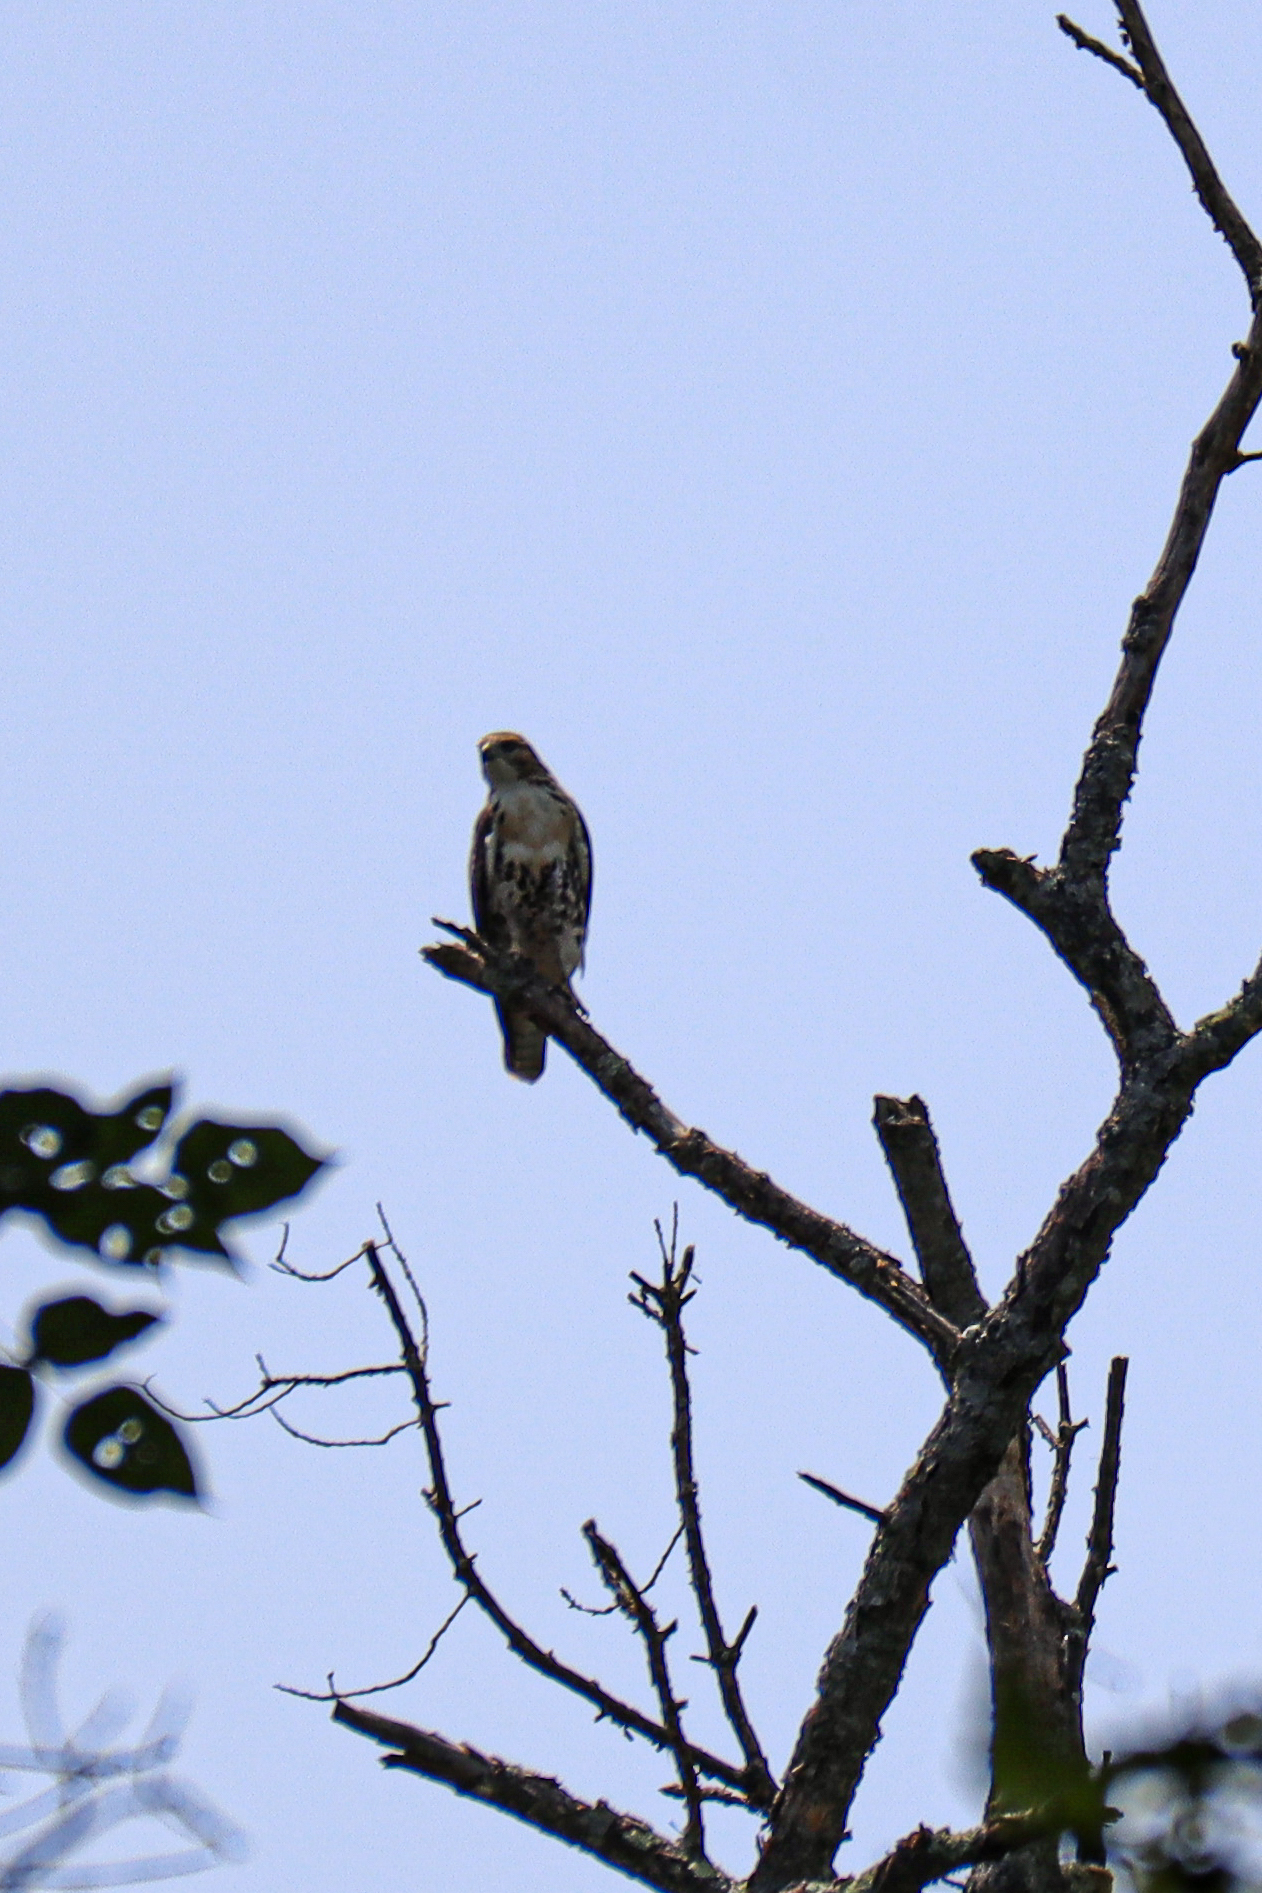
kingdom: Animalia
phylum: Chordata
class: Aves
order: Accipitriformes
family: Accipitridae
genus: Buteo
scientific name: Buteo jamaicensis
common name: Red-tailed hawk
